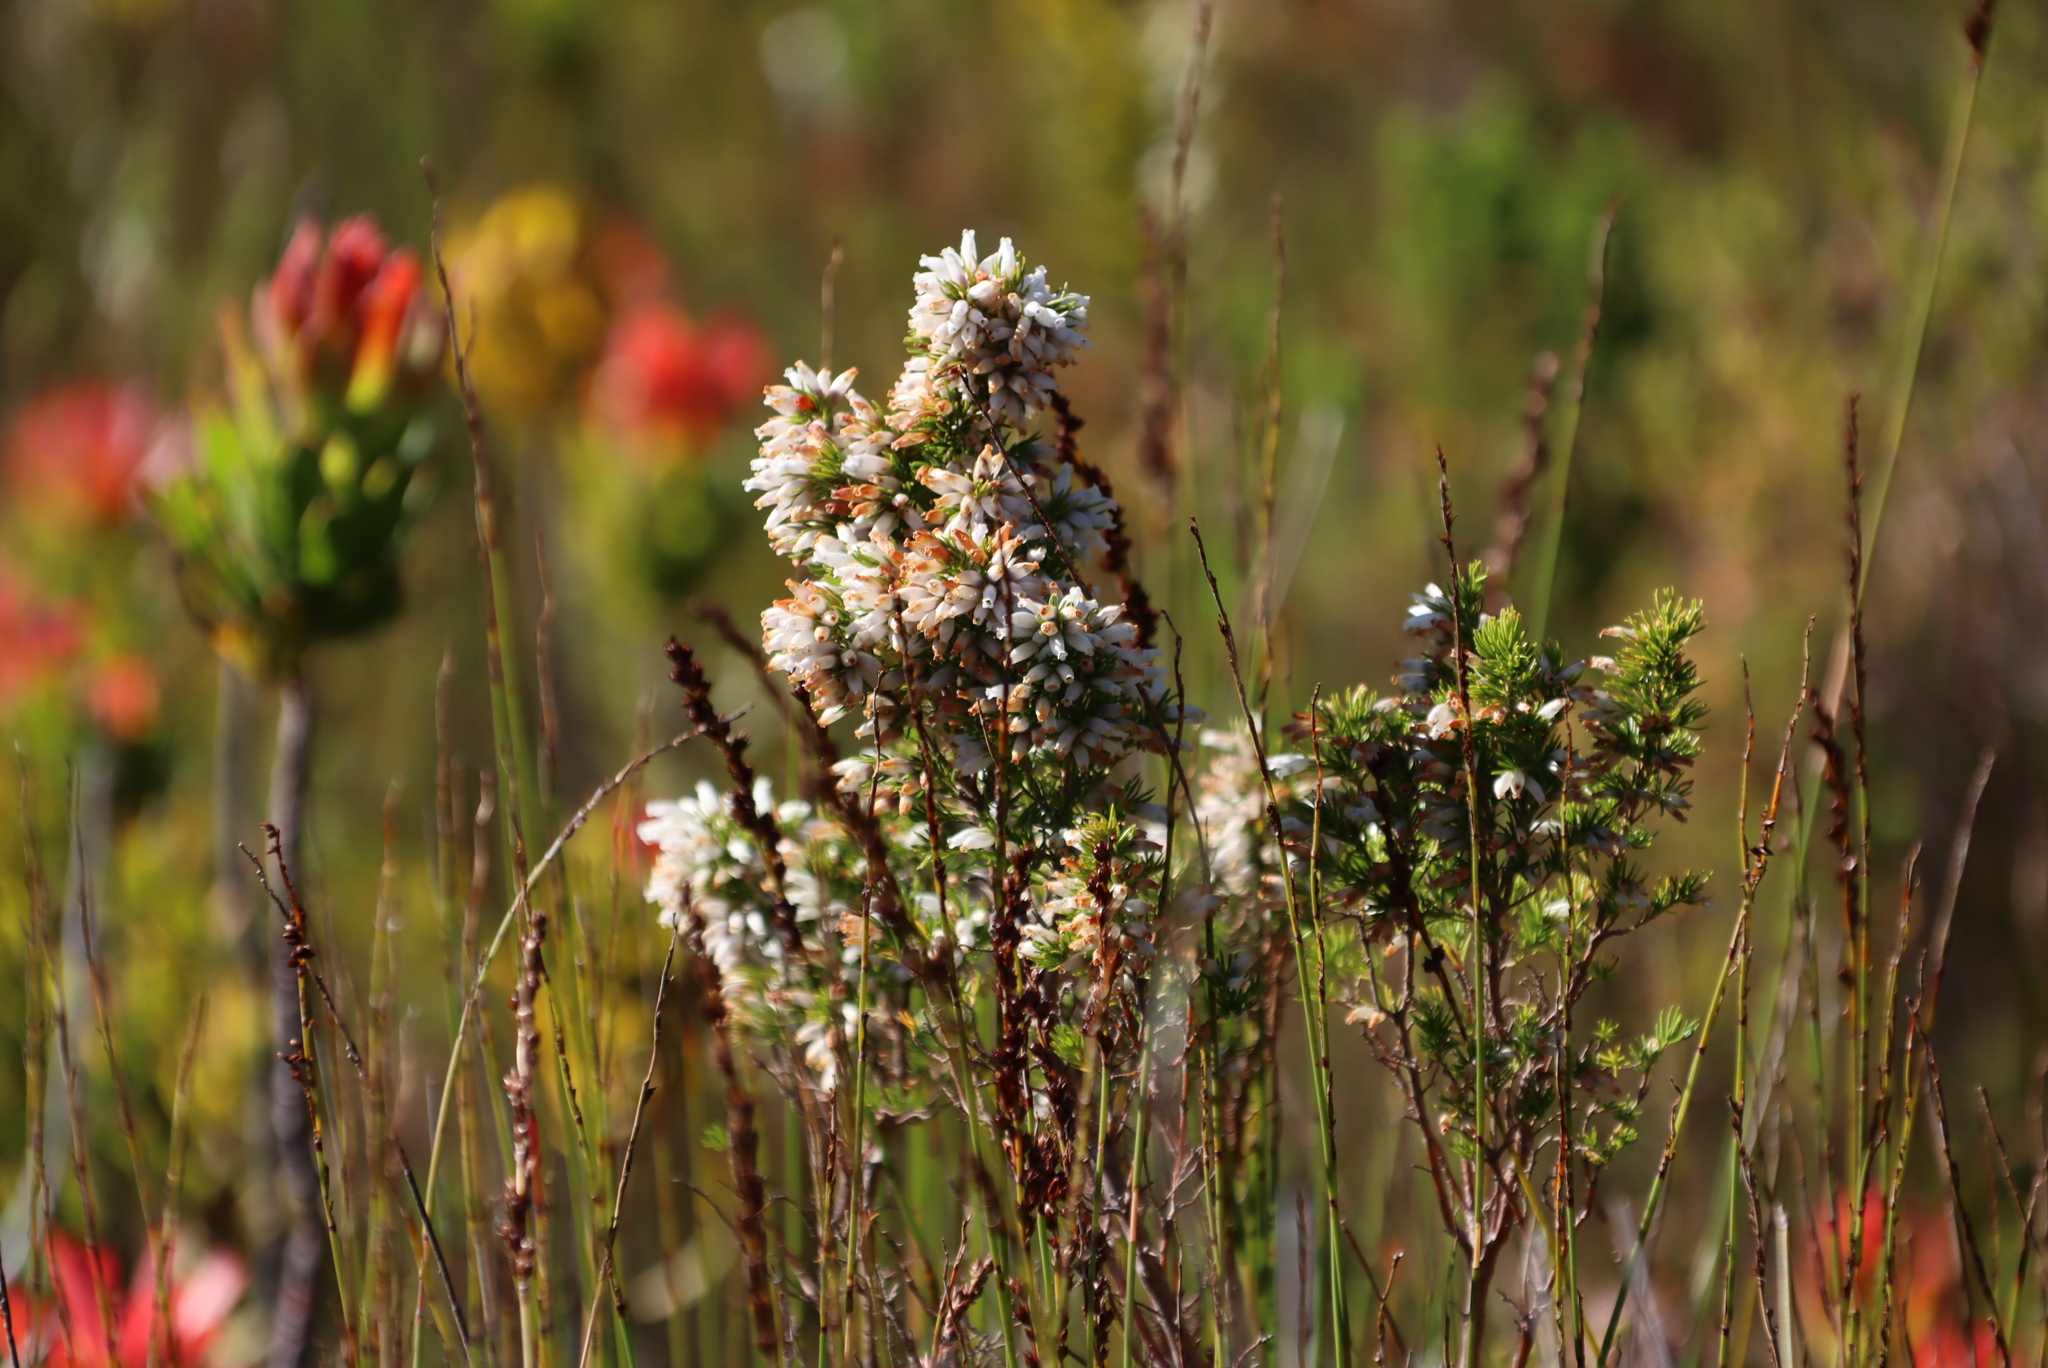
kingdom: Plantae
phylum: Tracheophyta
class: Magnoliopsida
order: Ericales
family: Ericaceae
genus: Erica
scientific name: Erica sitiens
